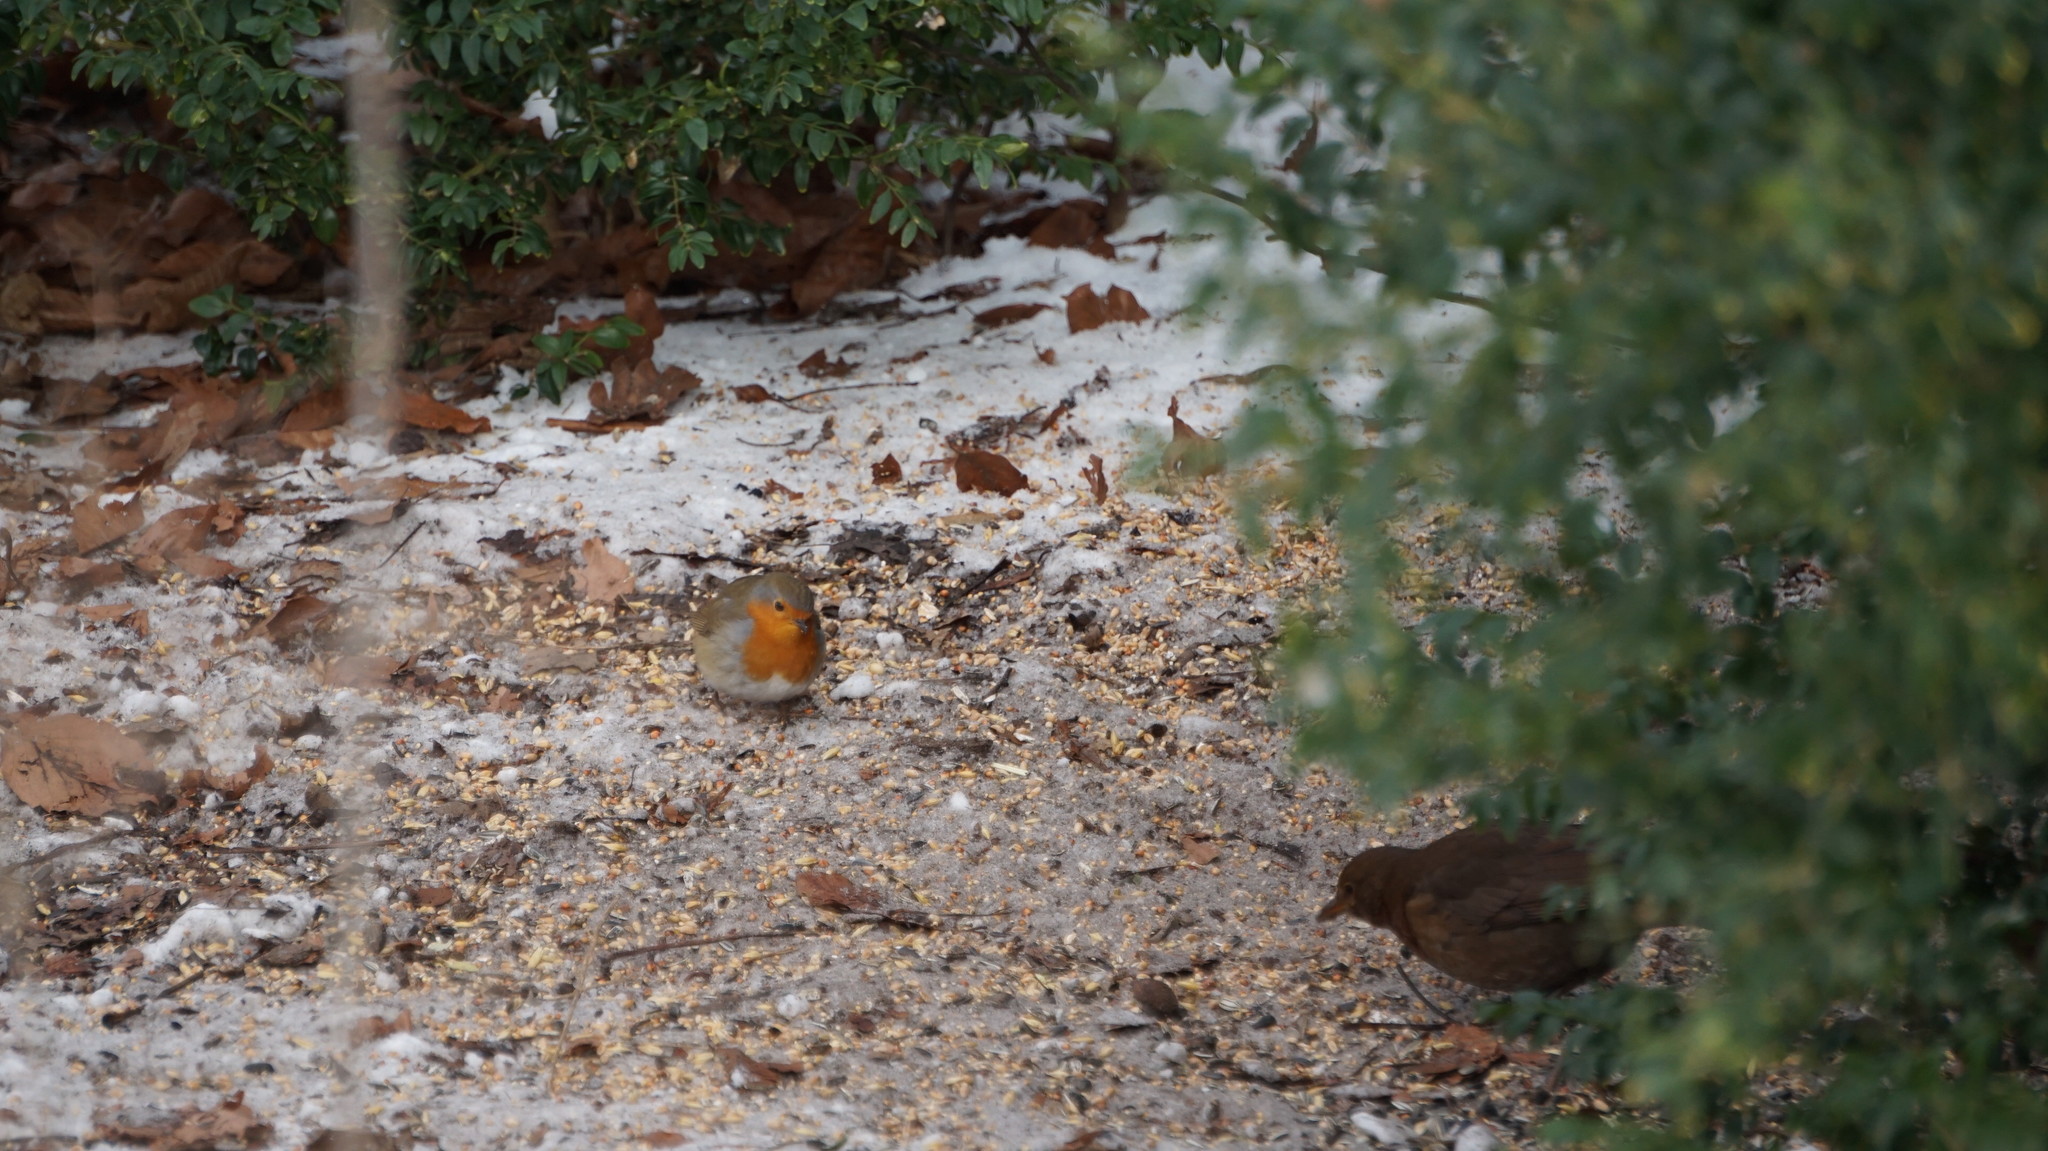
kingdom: Animalia
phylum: Chordata
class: Aves
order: Passeriformes
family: Muscicapidae
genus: Erithacus
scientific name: Erithacus rubecula
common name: European robin
